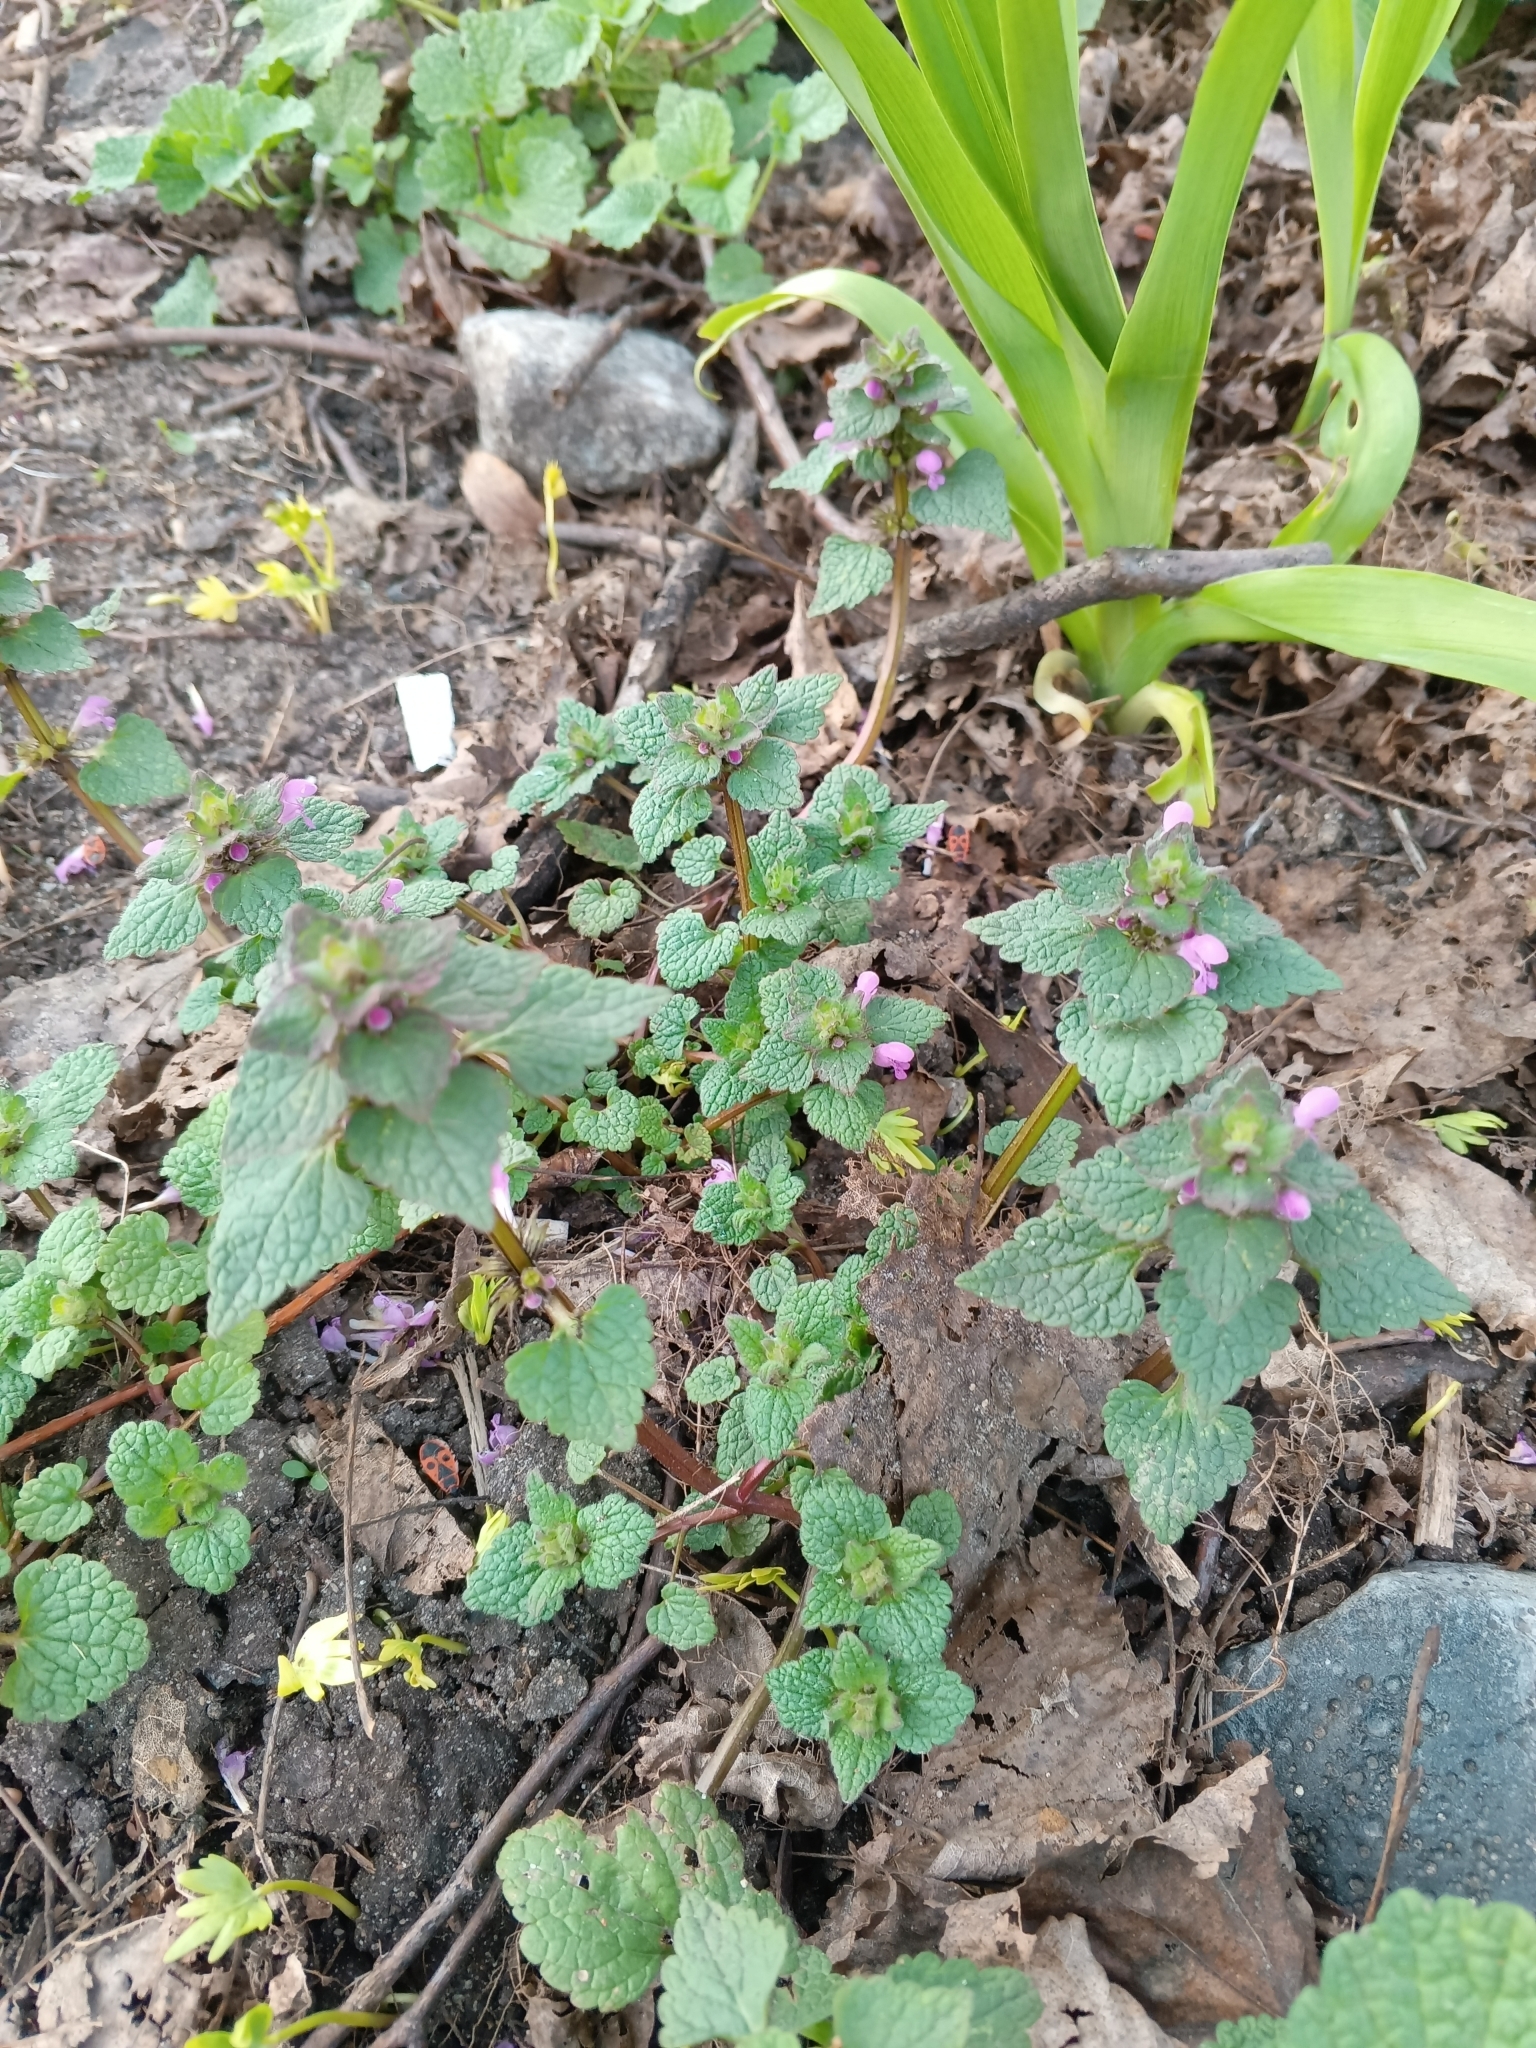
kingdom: Plantae
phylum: Tracheophyta
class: Magnoliopsida
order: Lamiales
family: Lamiaceae
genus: Ballota
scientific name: Ballota nigra
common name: Black horehound
